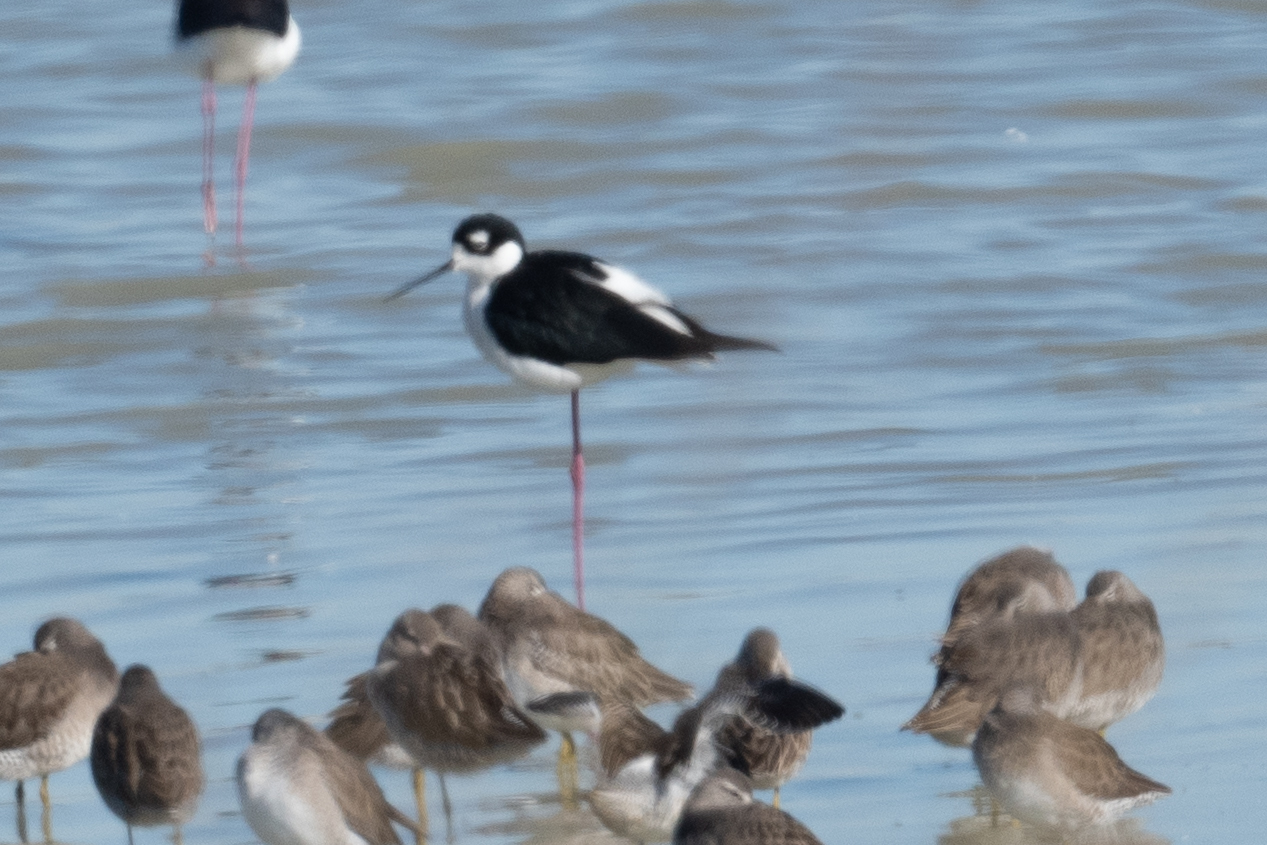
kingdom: Animalia
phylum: Chordata
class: Aves
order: Charadriiformes
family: Recurvirostridae
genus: Himantopus
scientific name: Himantopus mexicanus
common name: Black-necked stilt
